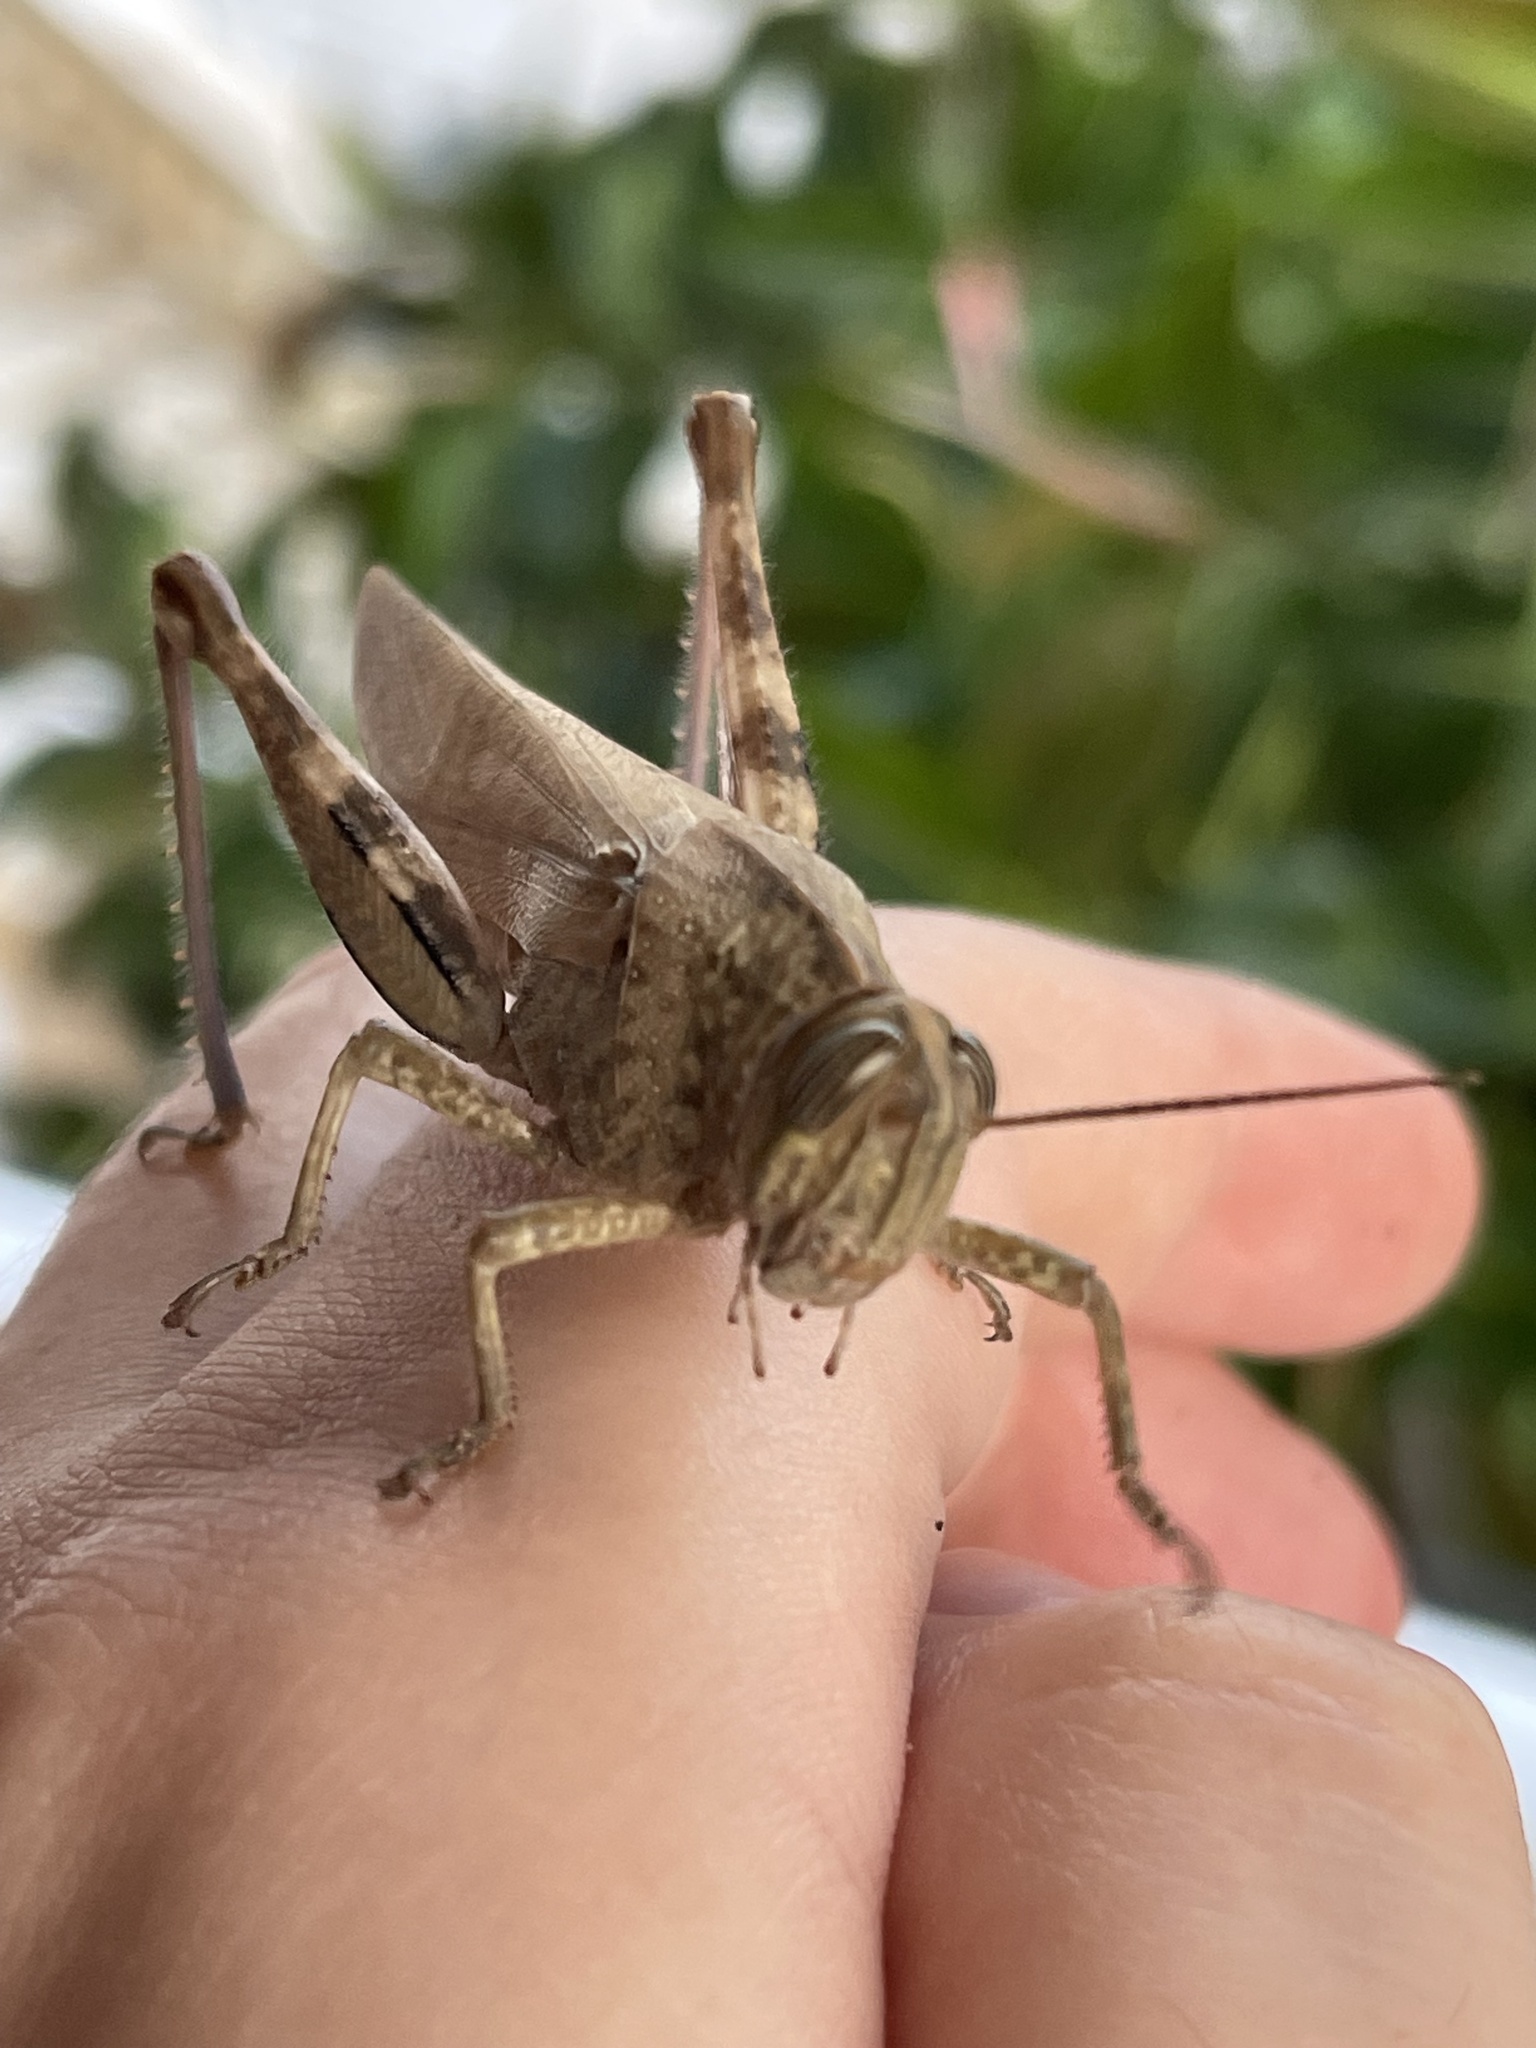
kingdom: Animalia
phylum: Arthropoda
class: Insecta
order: Orthoptera
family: Acrididae
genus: Anacridium
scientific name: Anacridium aegyptium
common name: Egyptian grasshopper
